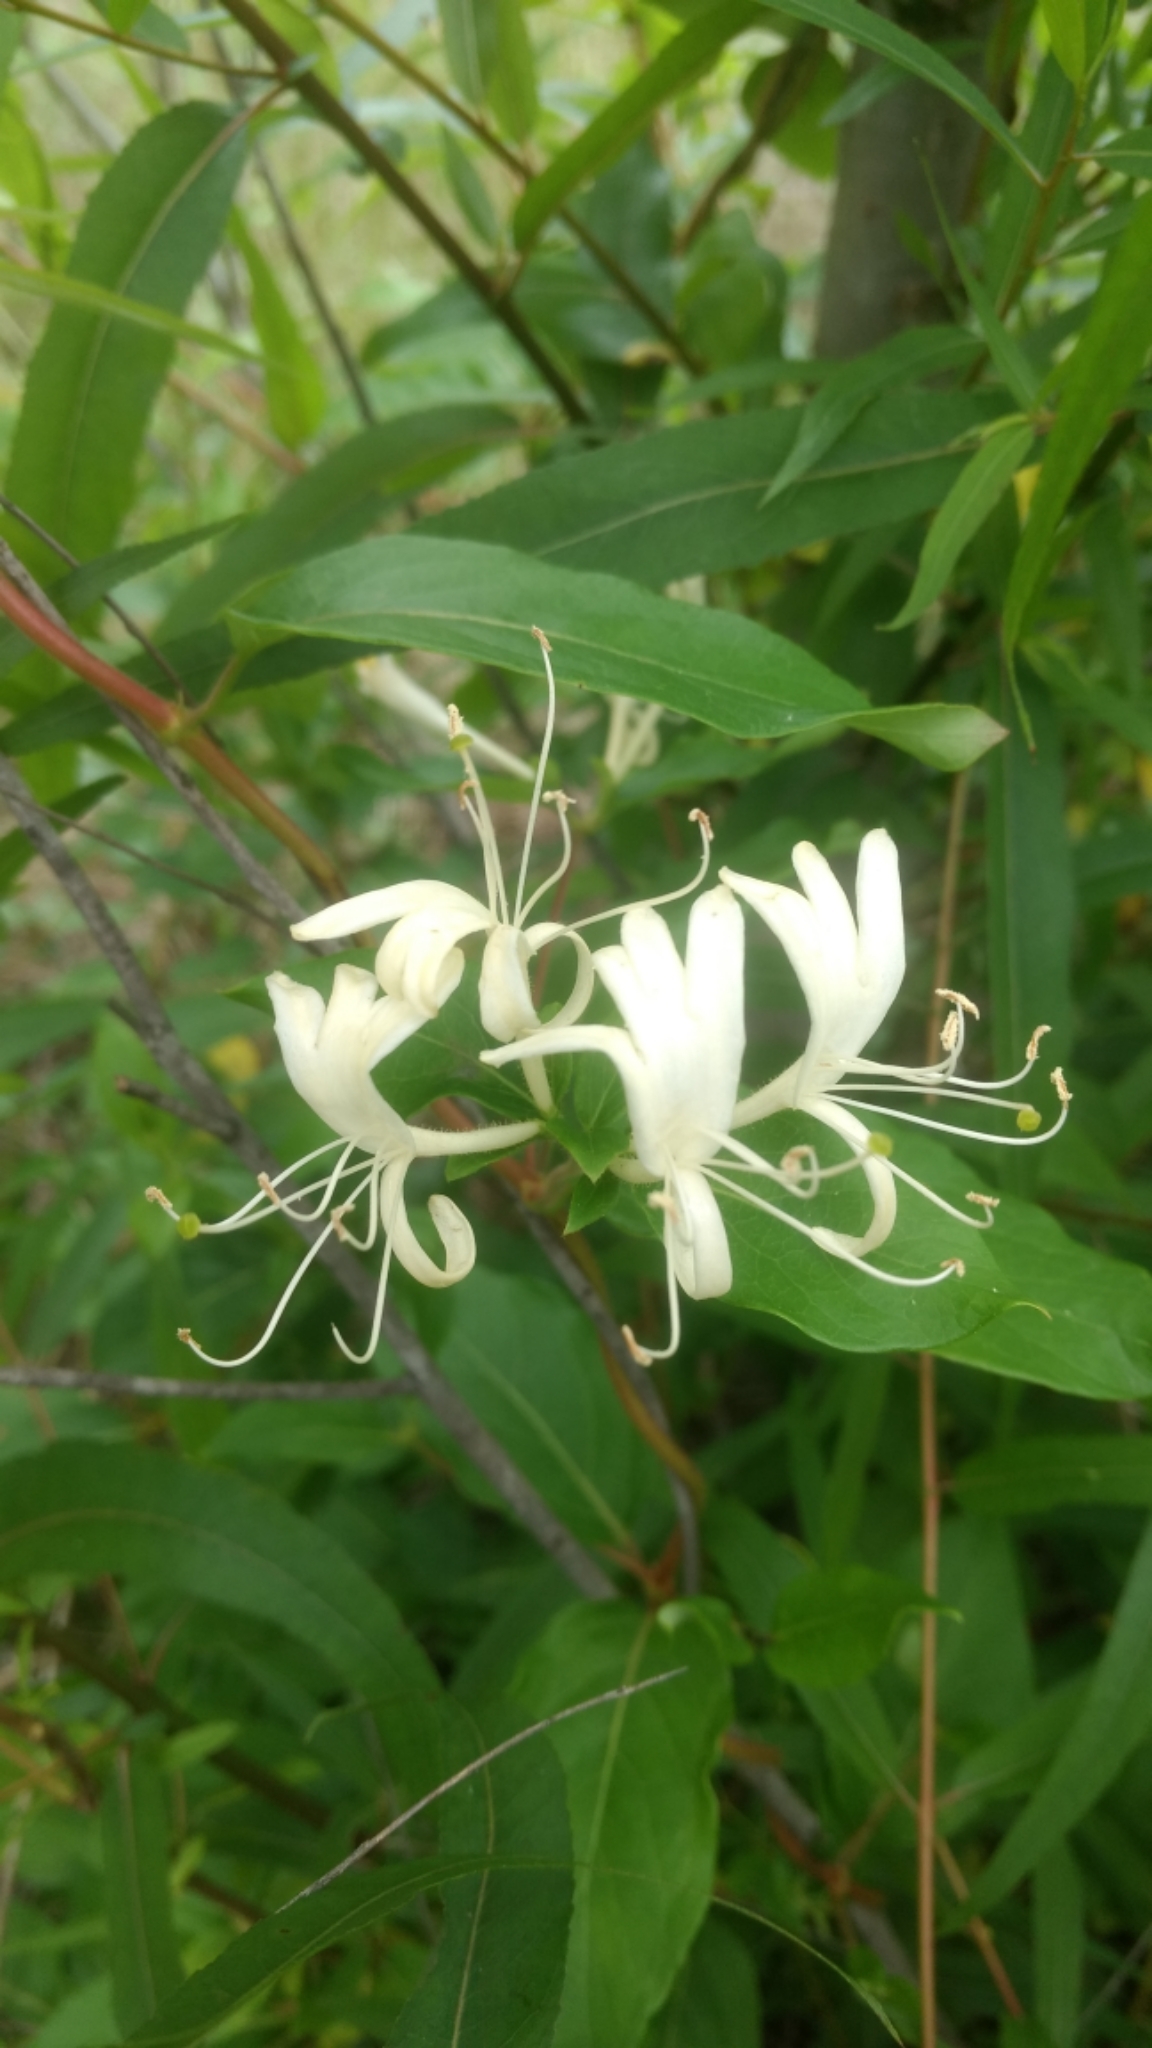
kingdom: Plantae
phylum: Tracheophyta
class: Magnoliopsida
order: Dipsacales
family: Caprifoliaceae
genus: Lonicera
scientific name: Lonicera japonica
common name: Japanese honeysuckle
